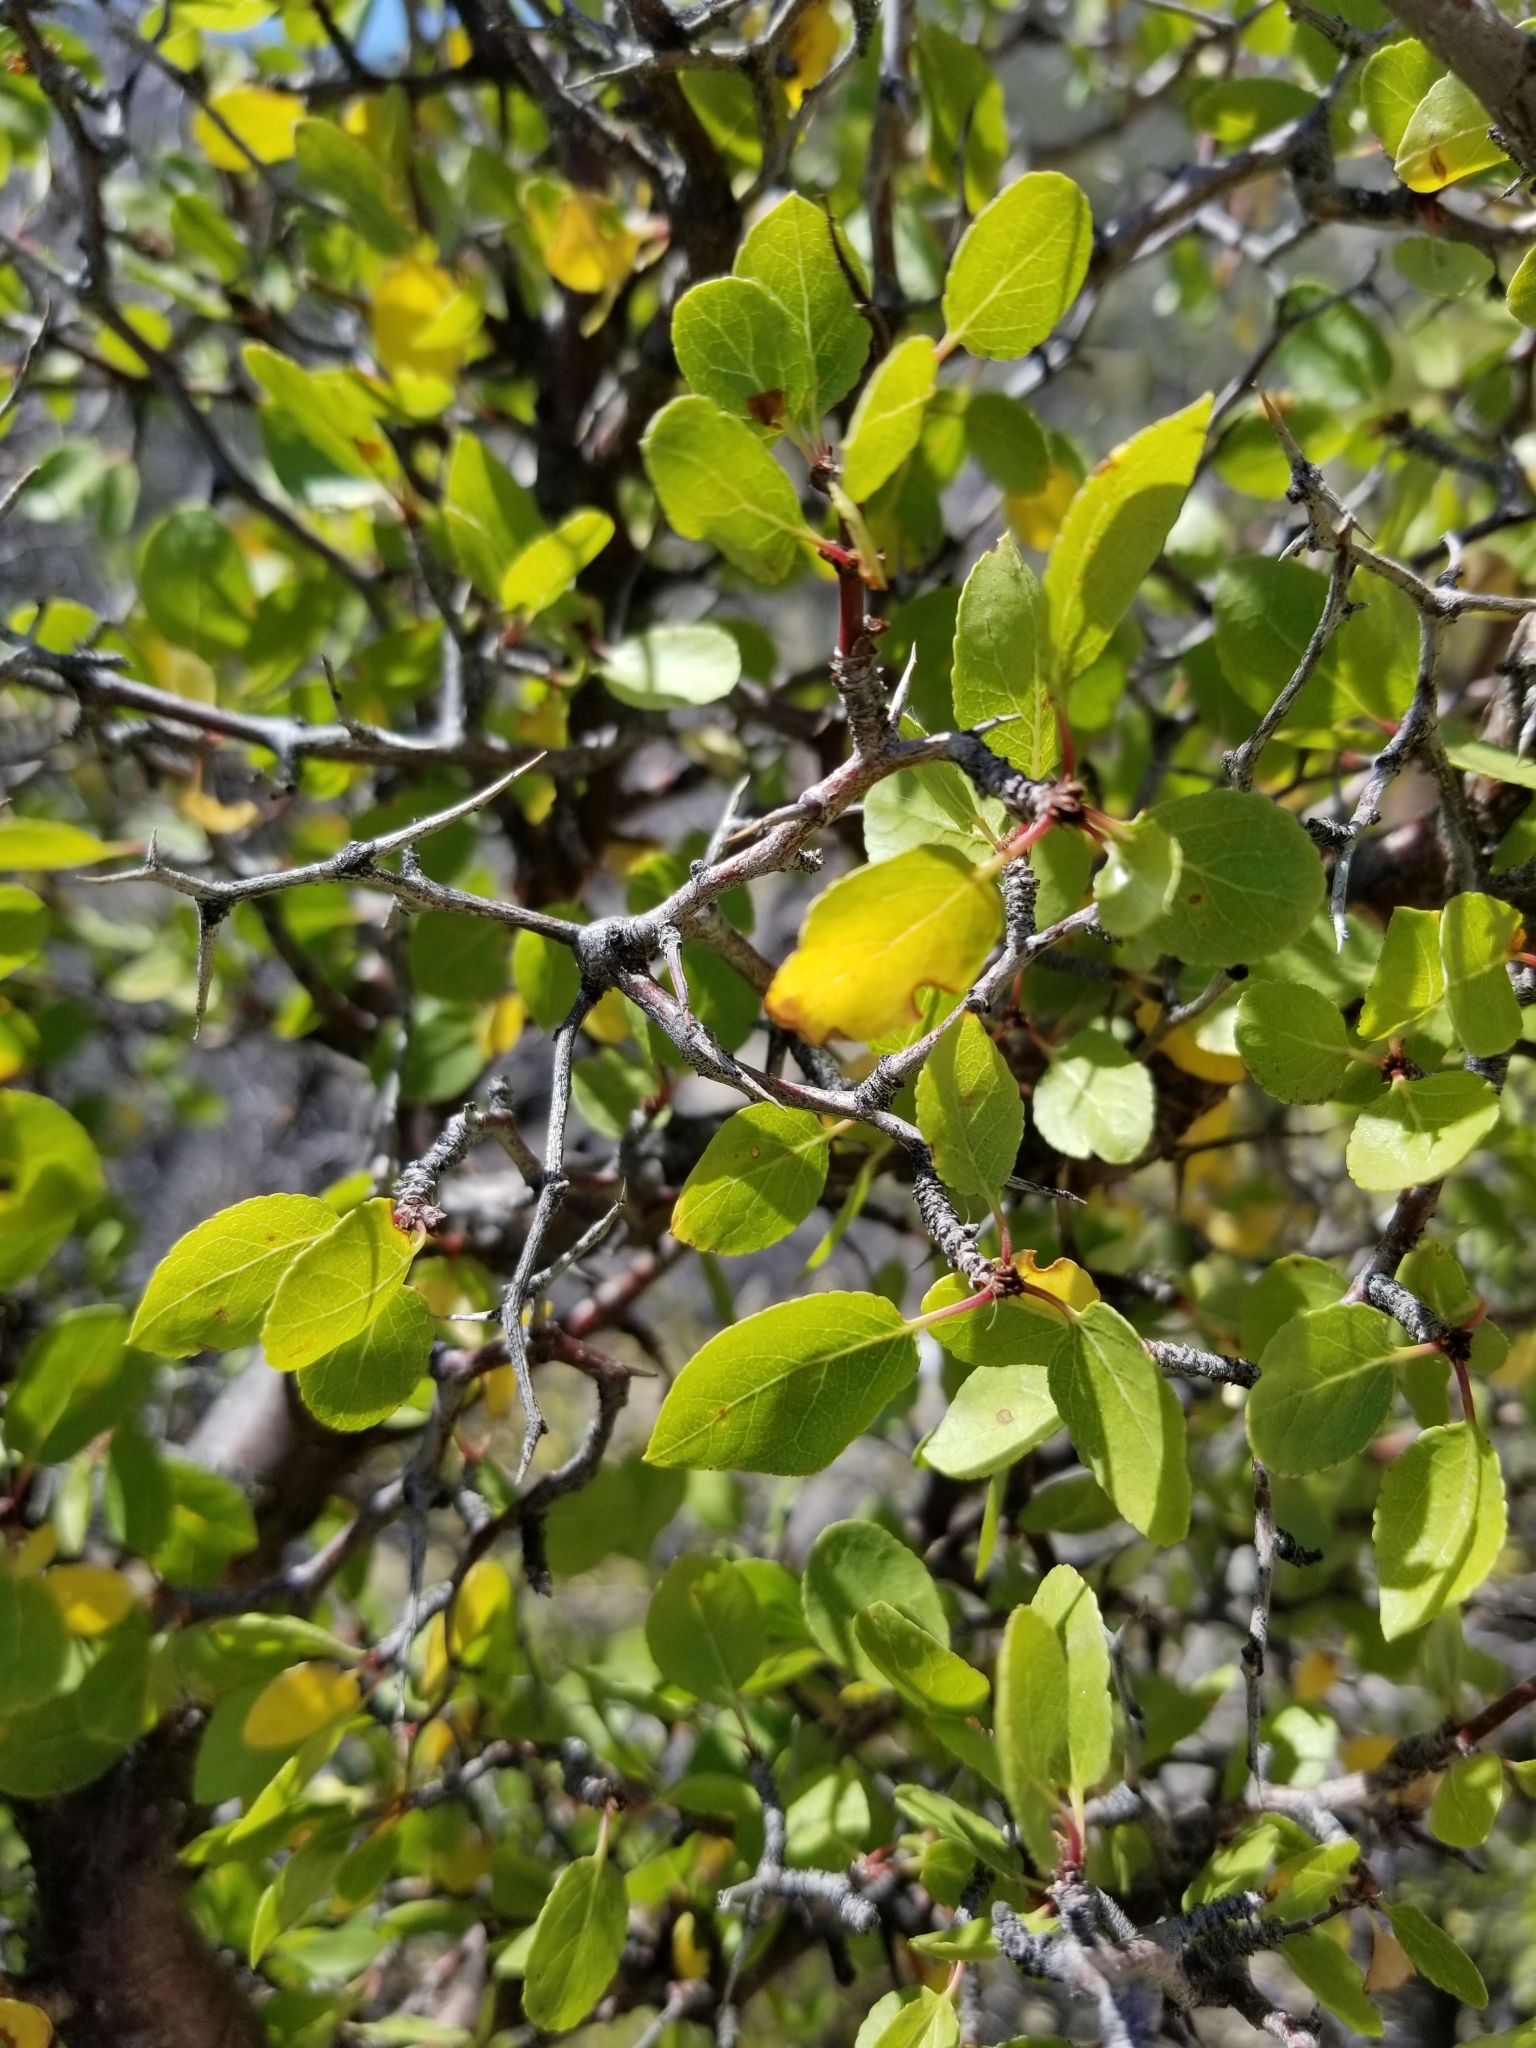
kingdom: Plantae
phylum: Tracheophyta
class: Magnoliopsida
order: Rosales
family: Rosaceae
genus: Prunus
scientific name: Prunus fremontii
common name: Desert apricot
